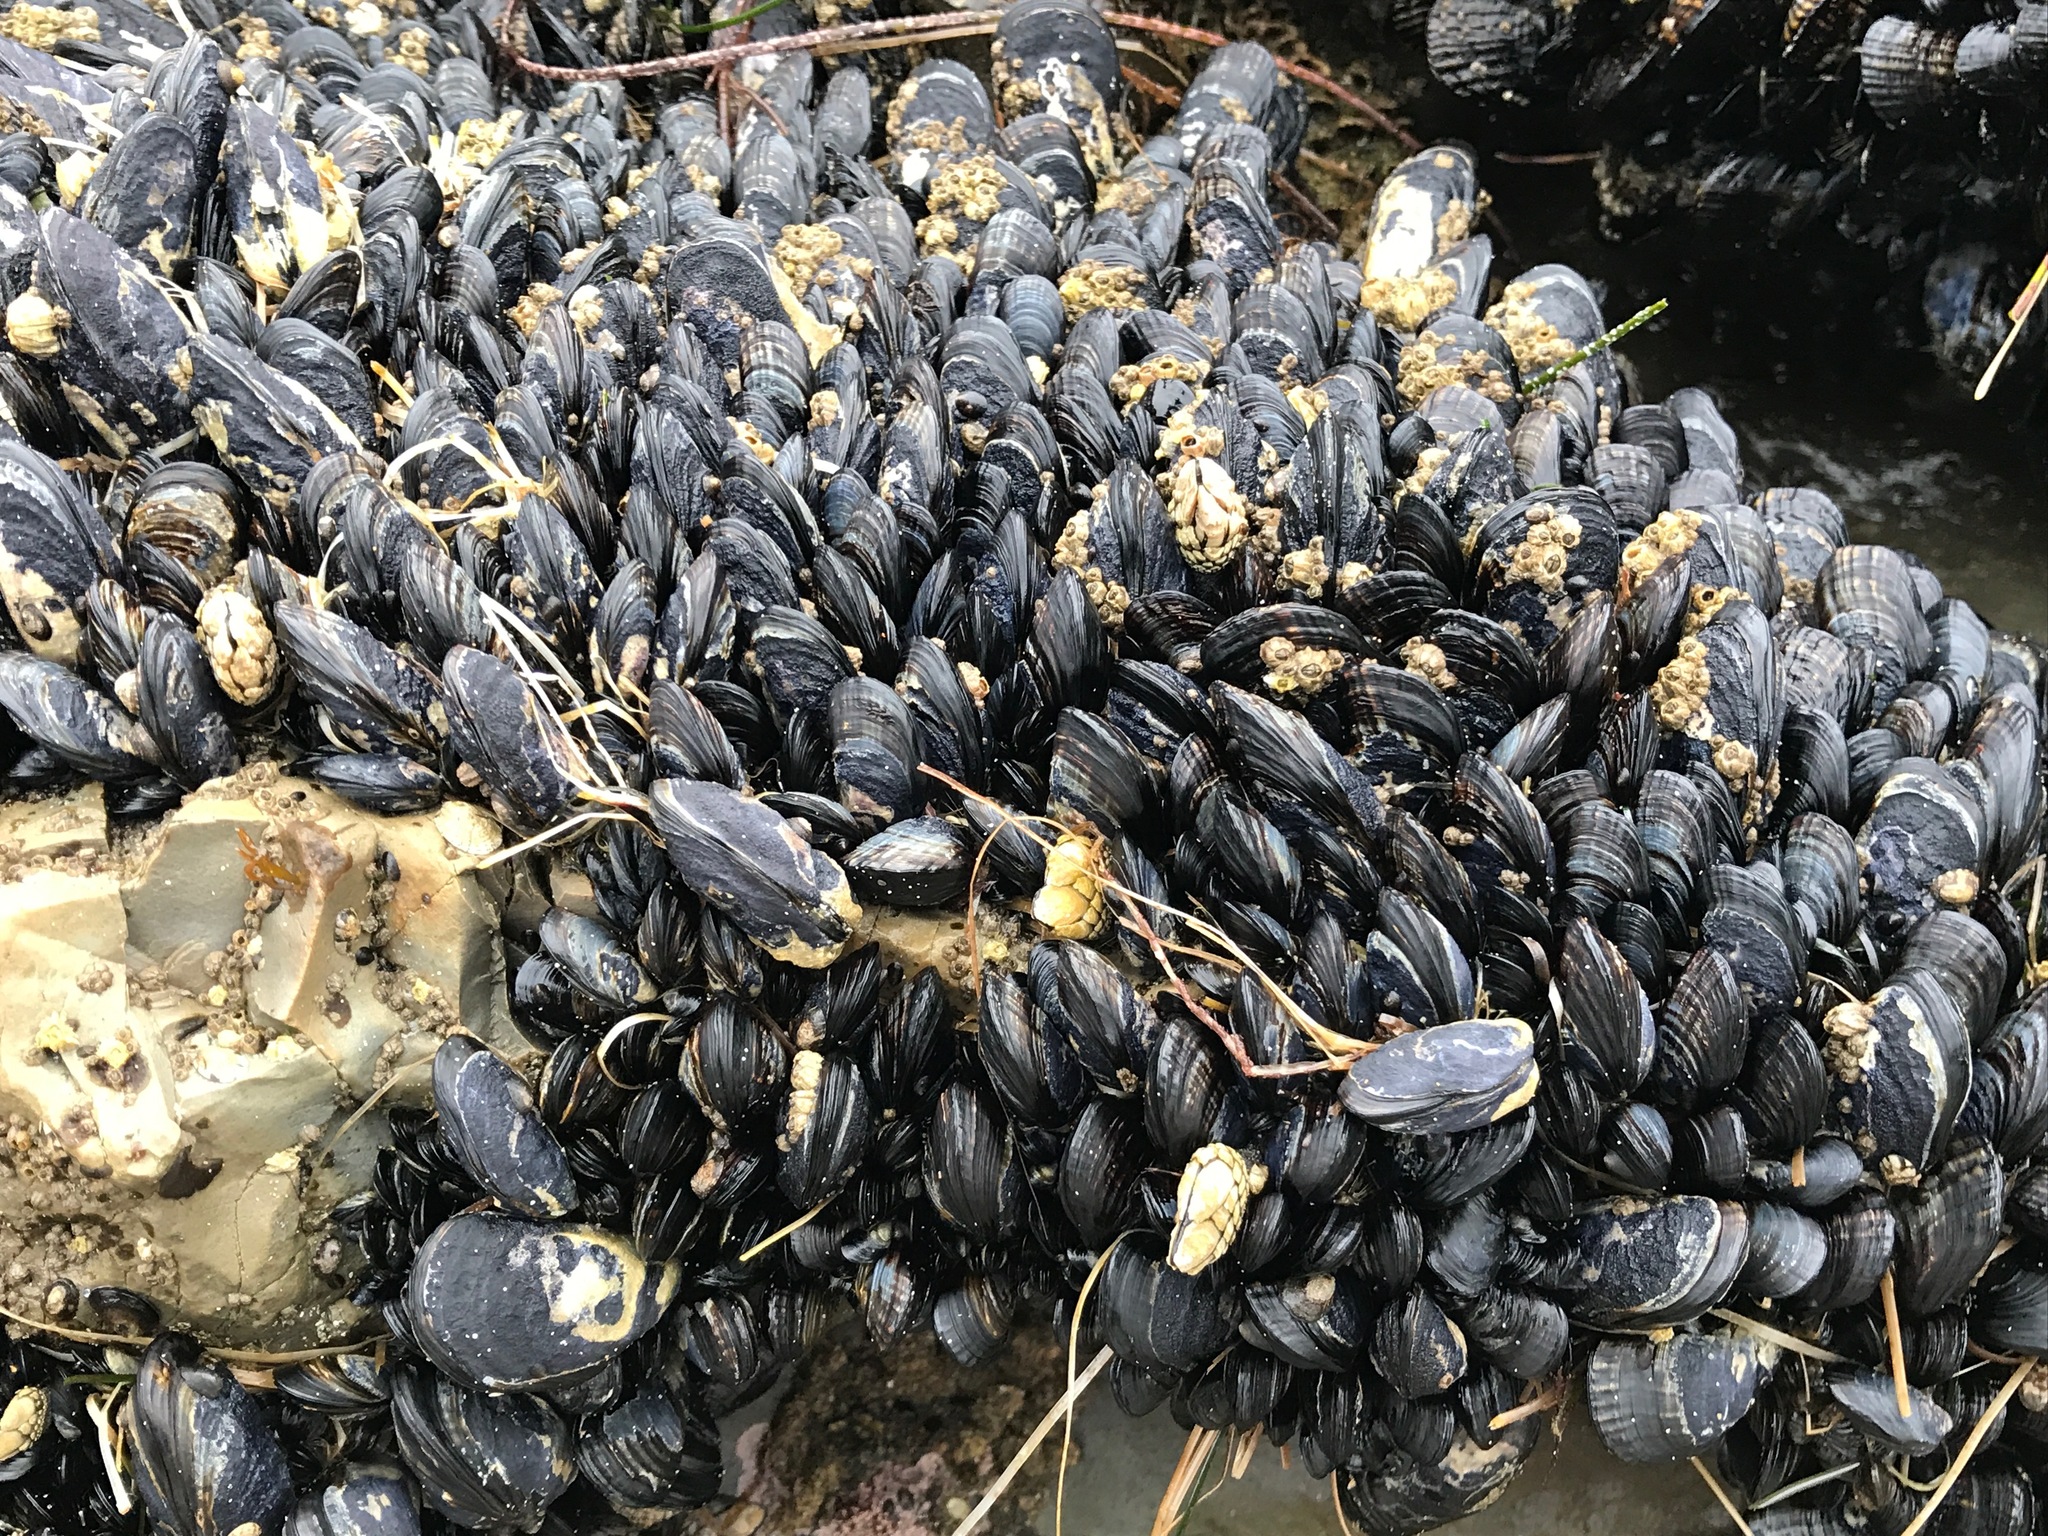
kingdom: Animalia
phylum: Mollusca
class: Bivalvia
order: Mytilida
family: Mytilidae
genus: Mytilus
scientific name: Mytilus californianus
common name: California mussel
